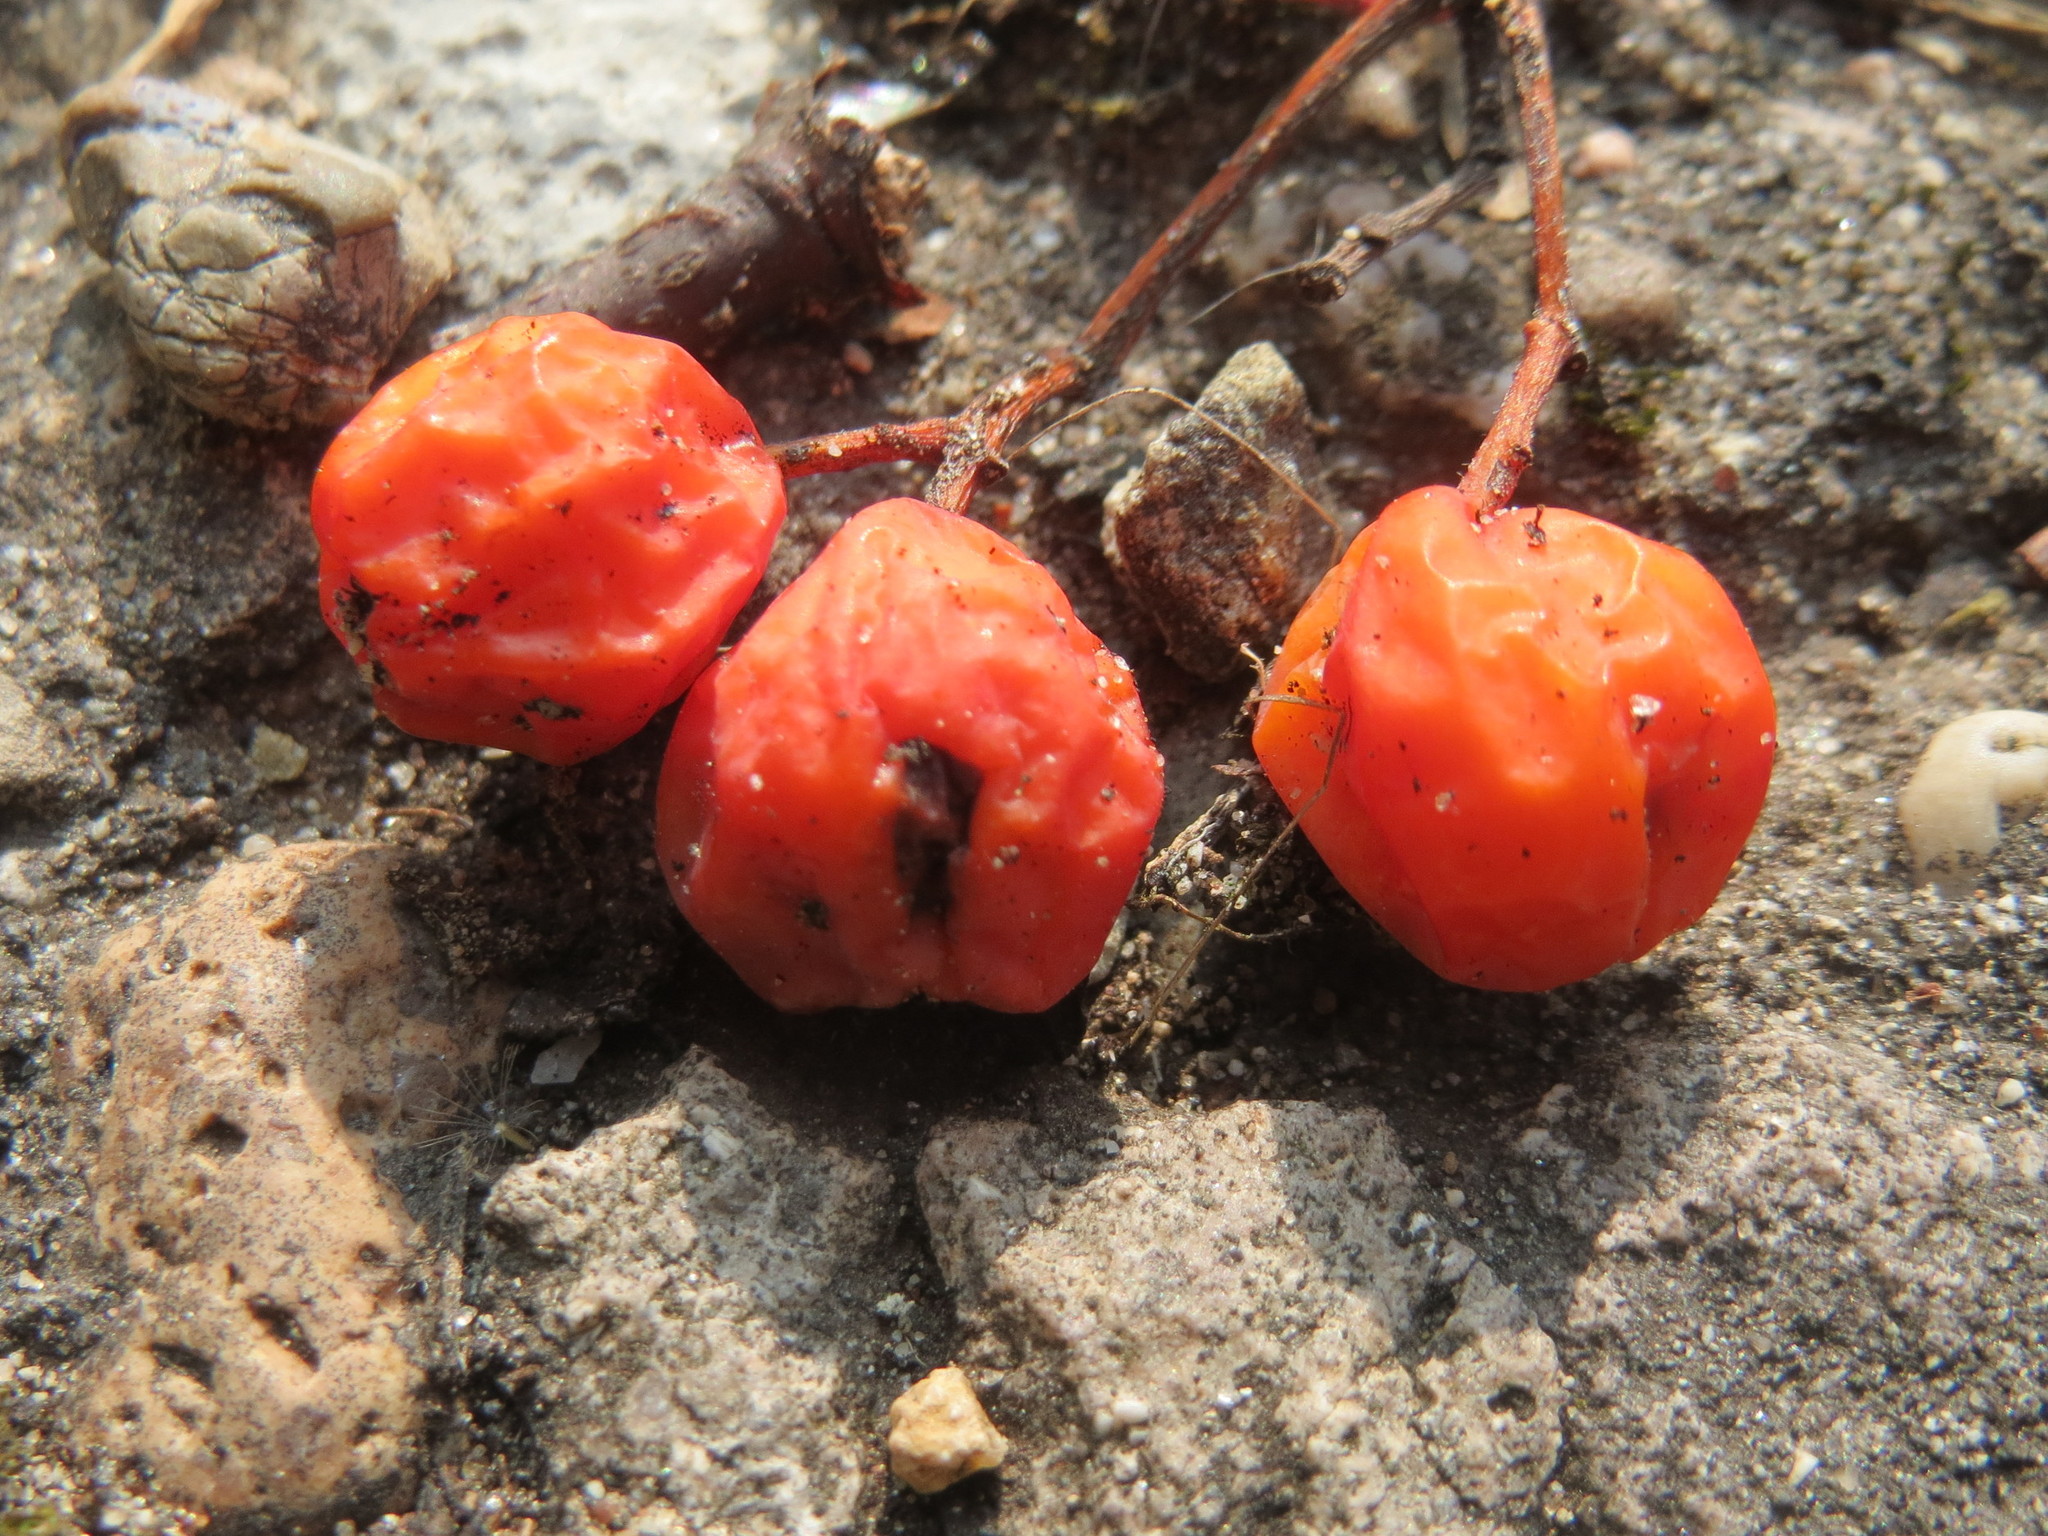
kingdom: Plantae
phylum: Tracheophyta
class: Magnoliopsida
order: Rosales
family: Rosaceae
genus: Sorbus
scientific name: Sorbus aucuparia
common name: Rowan
